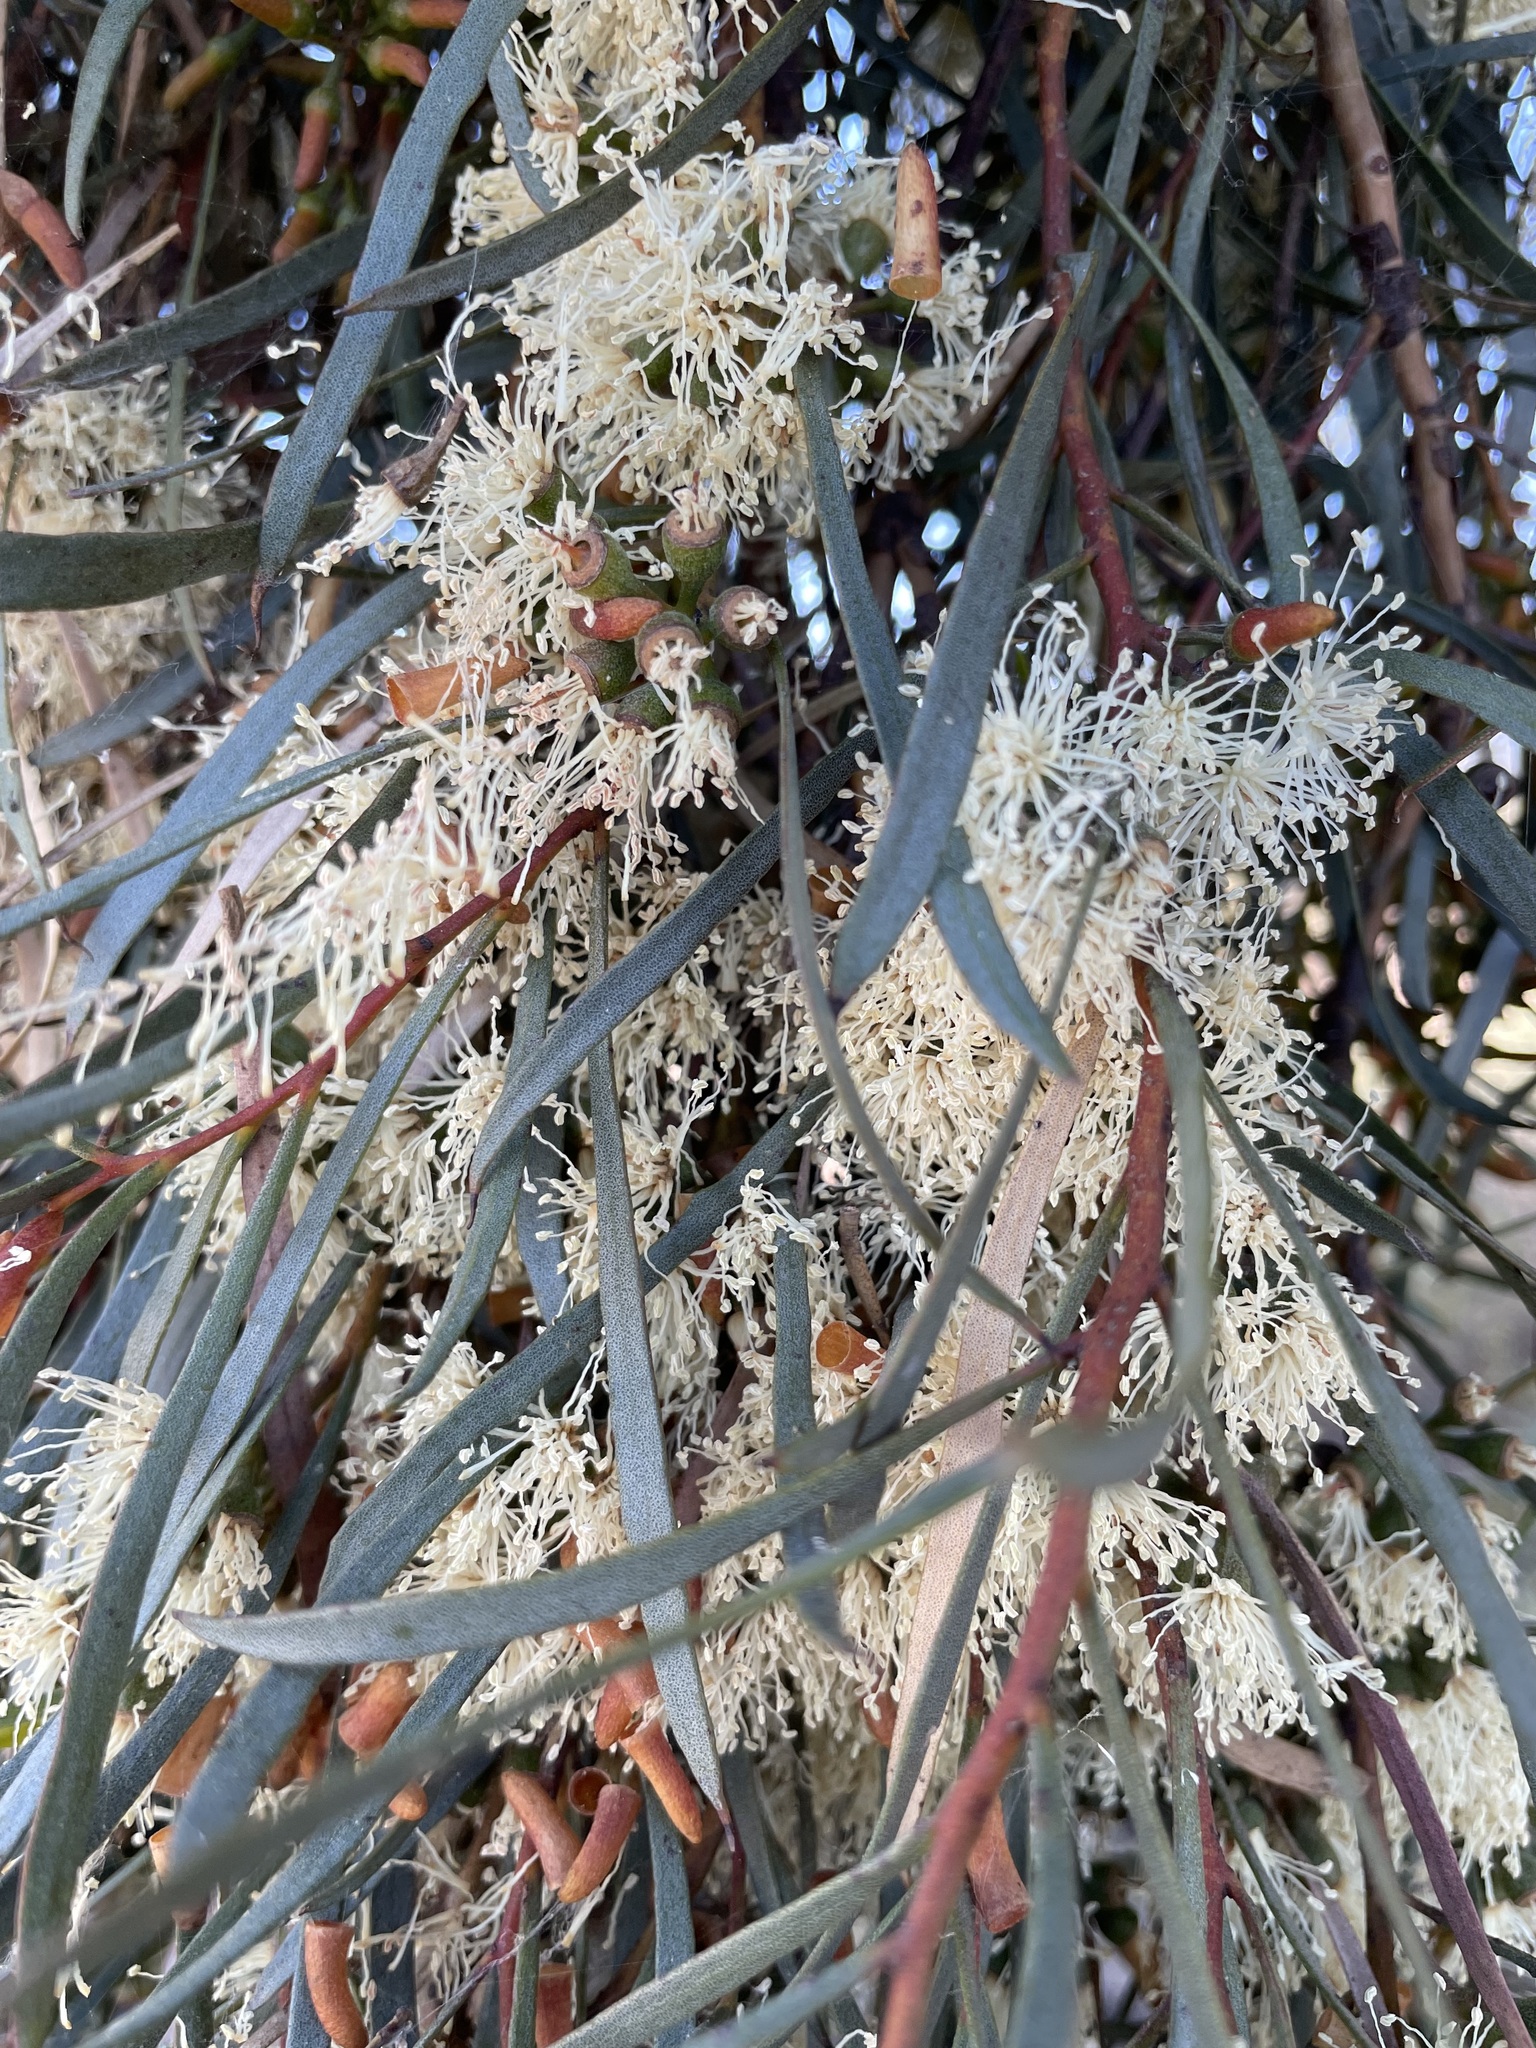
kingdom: Plantae
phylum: Tracheophyta
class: Magnoliopsida
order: Myrtales
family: Myrtaceae
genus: Eucalyptus
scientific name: Eucalyptus spathulata
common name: Swamp mallet
